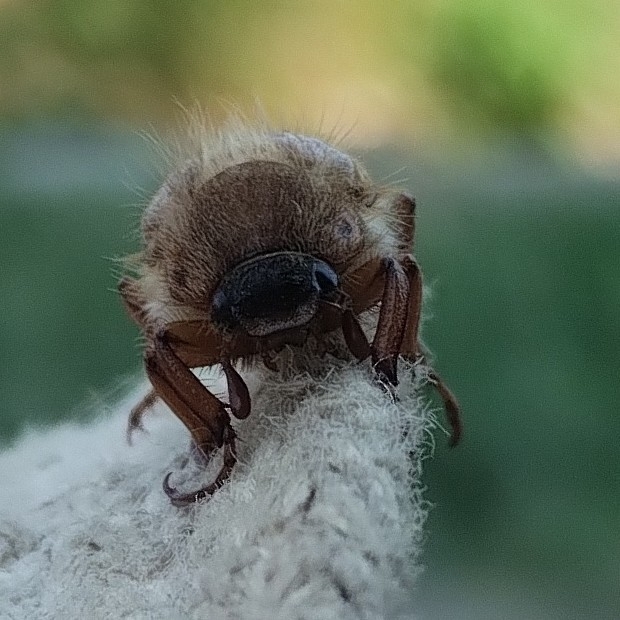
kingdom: Animalia
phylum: Arthropoda
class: Insecta
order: Coleoptera
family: Scarabaeidae
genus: Amphimallon
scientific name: Amphimallon solstitiale
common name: Summer chafer
